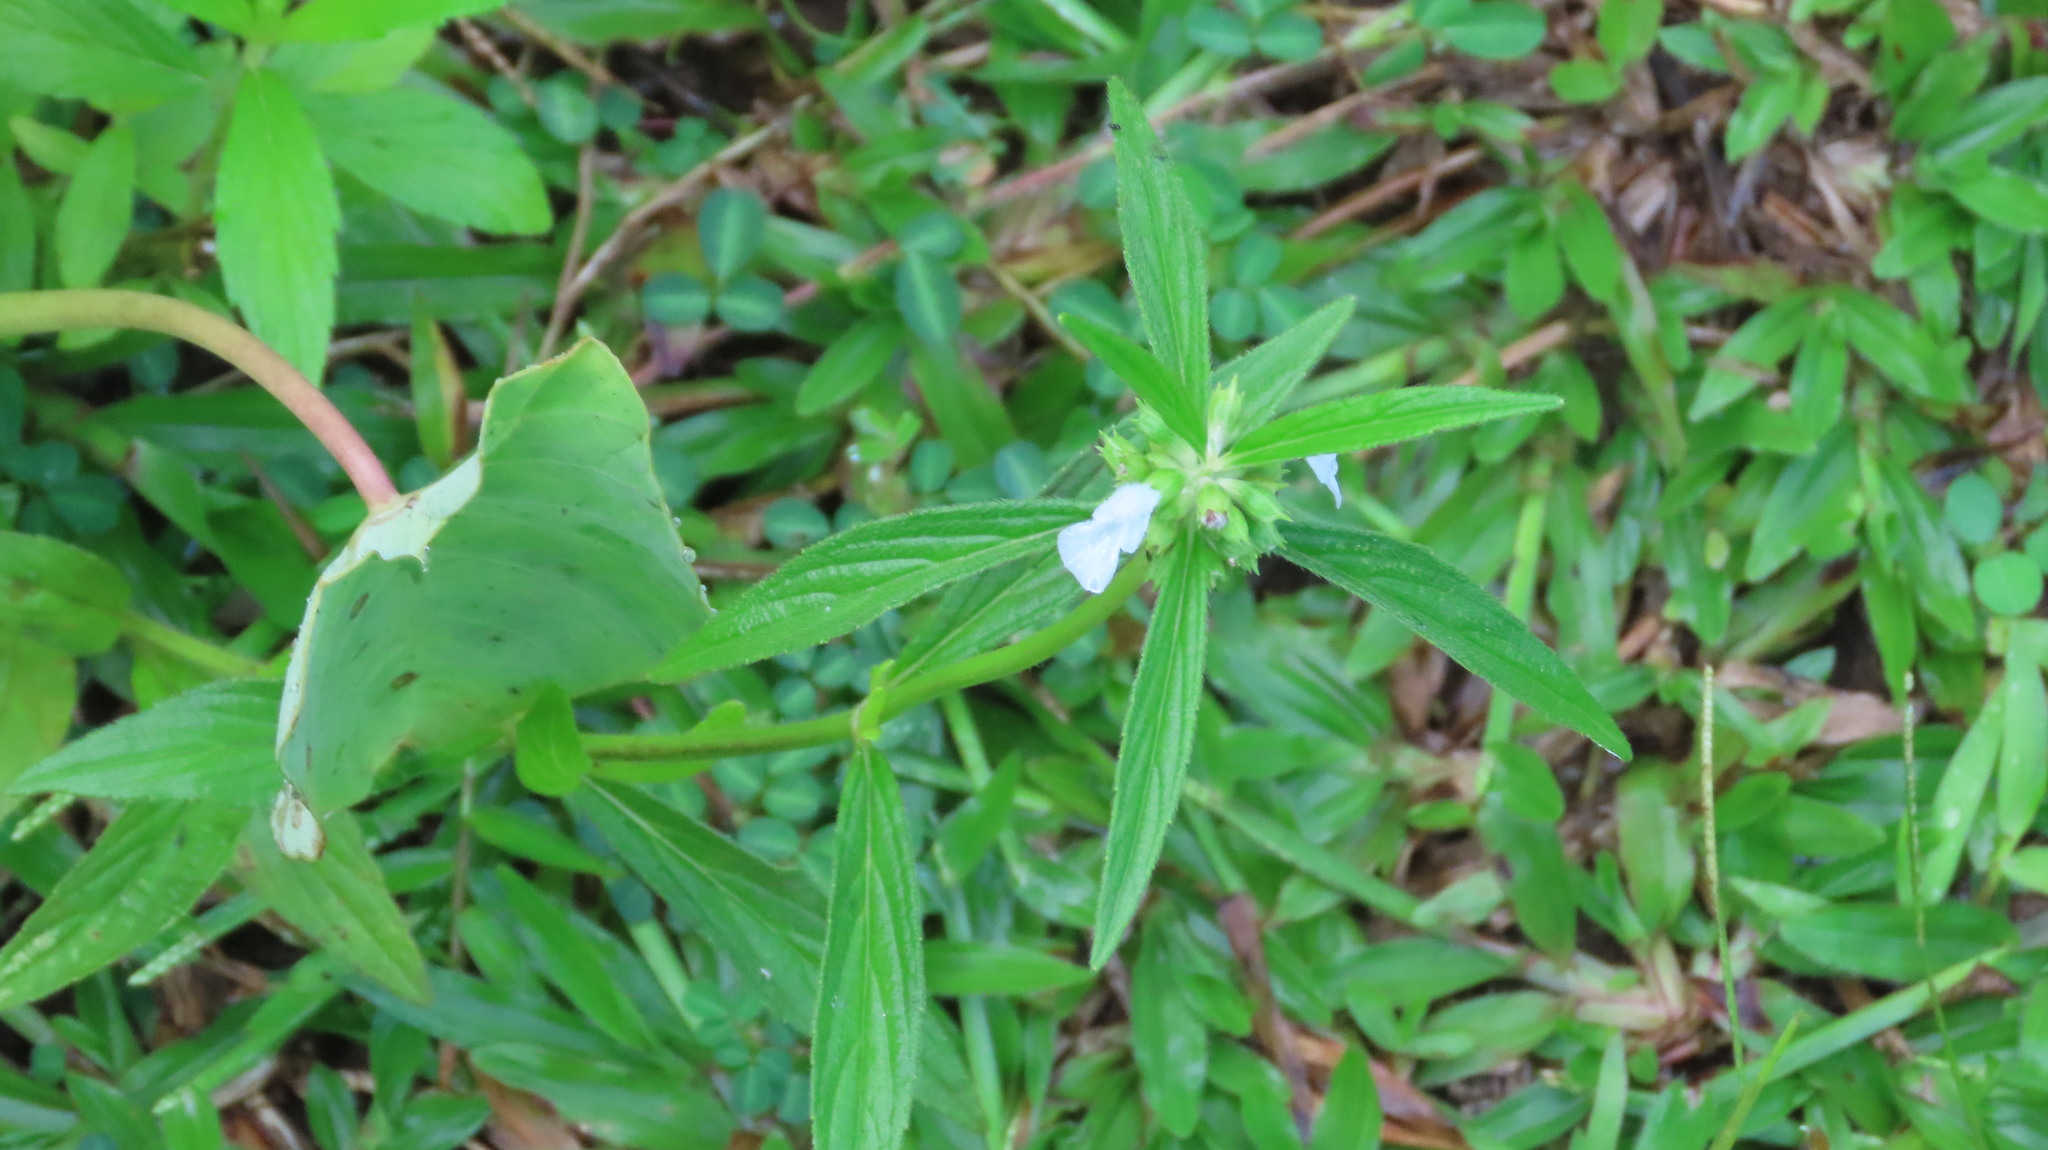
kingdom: Plantae
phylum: Tracheophyta
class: Magnoliopsida
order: Lamiales
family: Lamiaceae
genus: Leucas
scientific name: Leucas aspera
